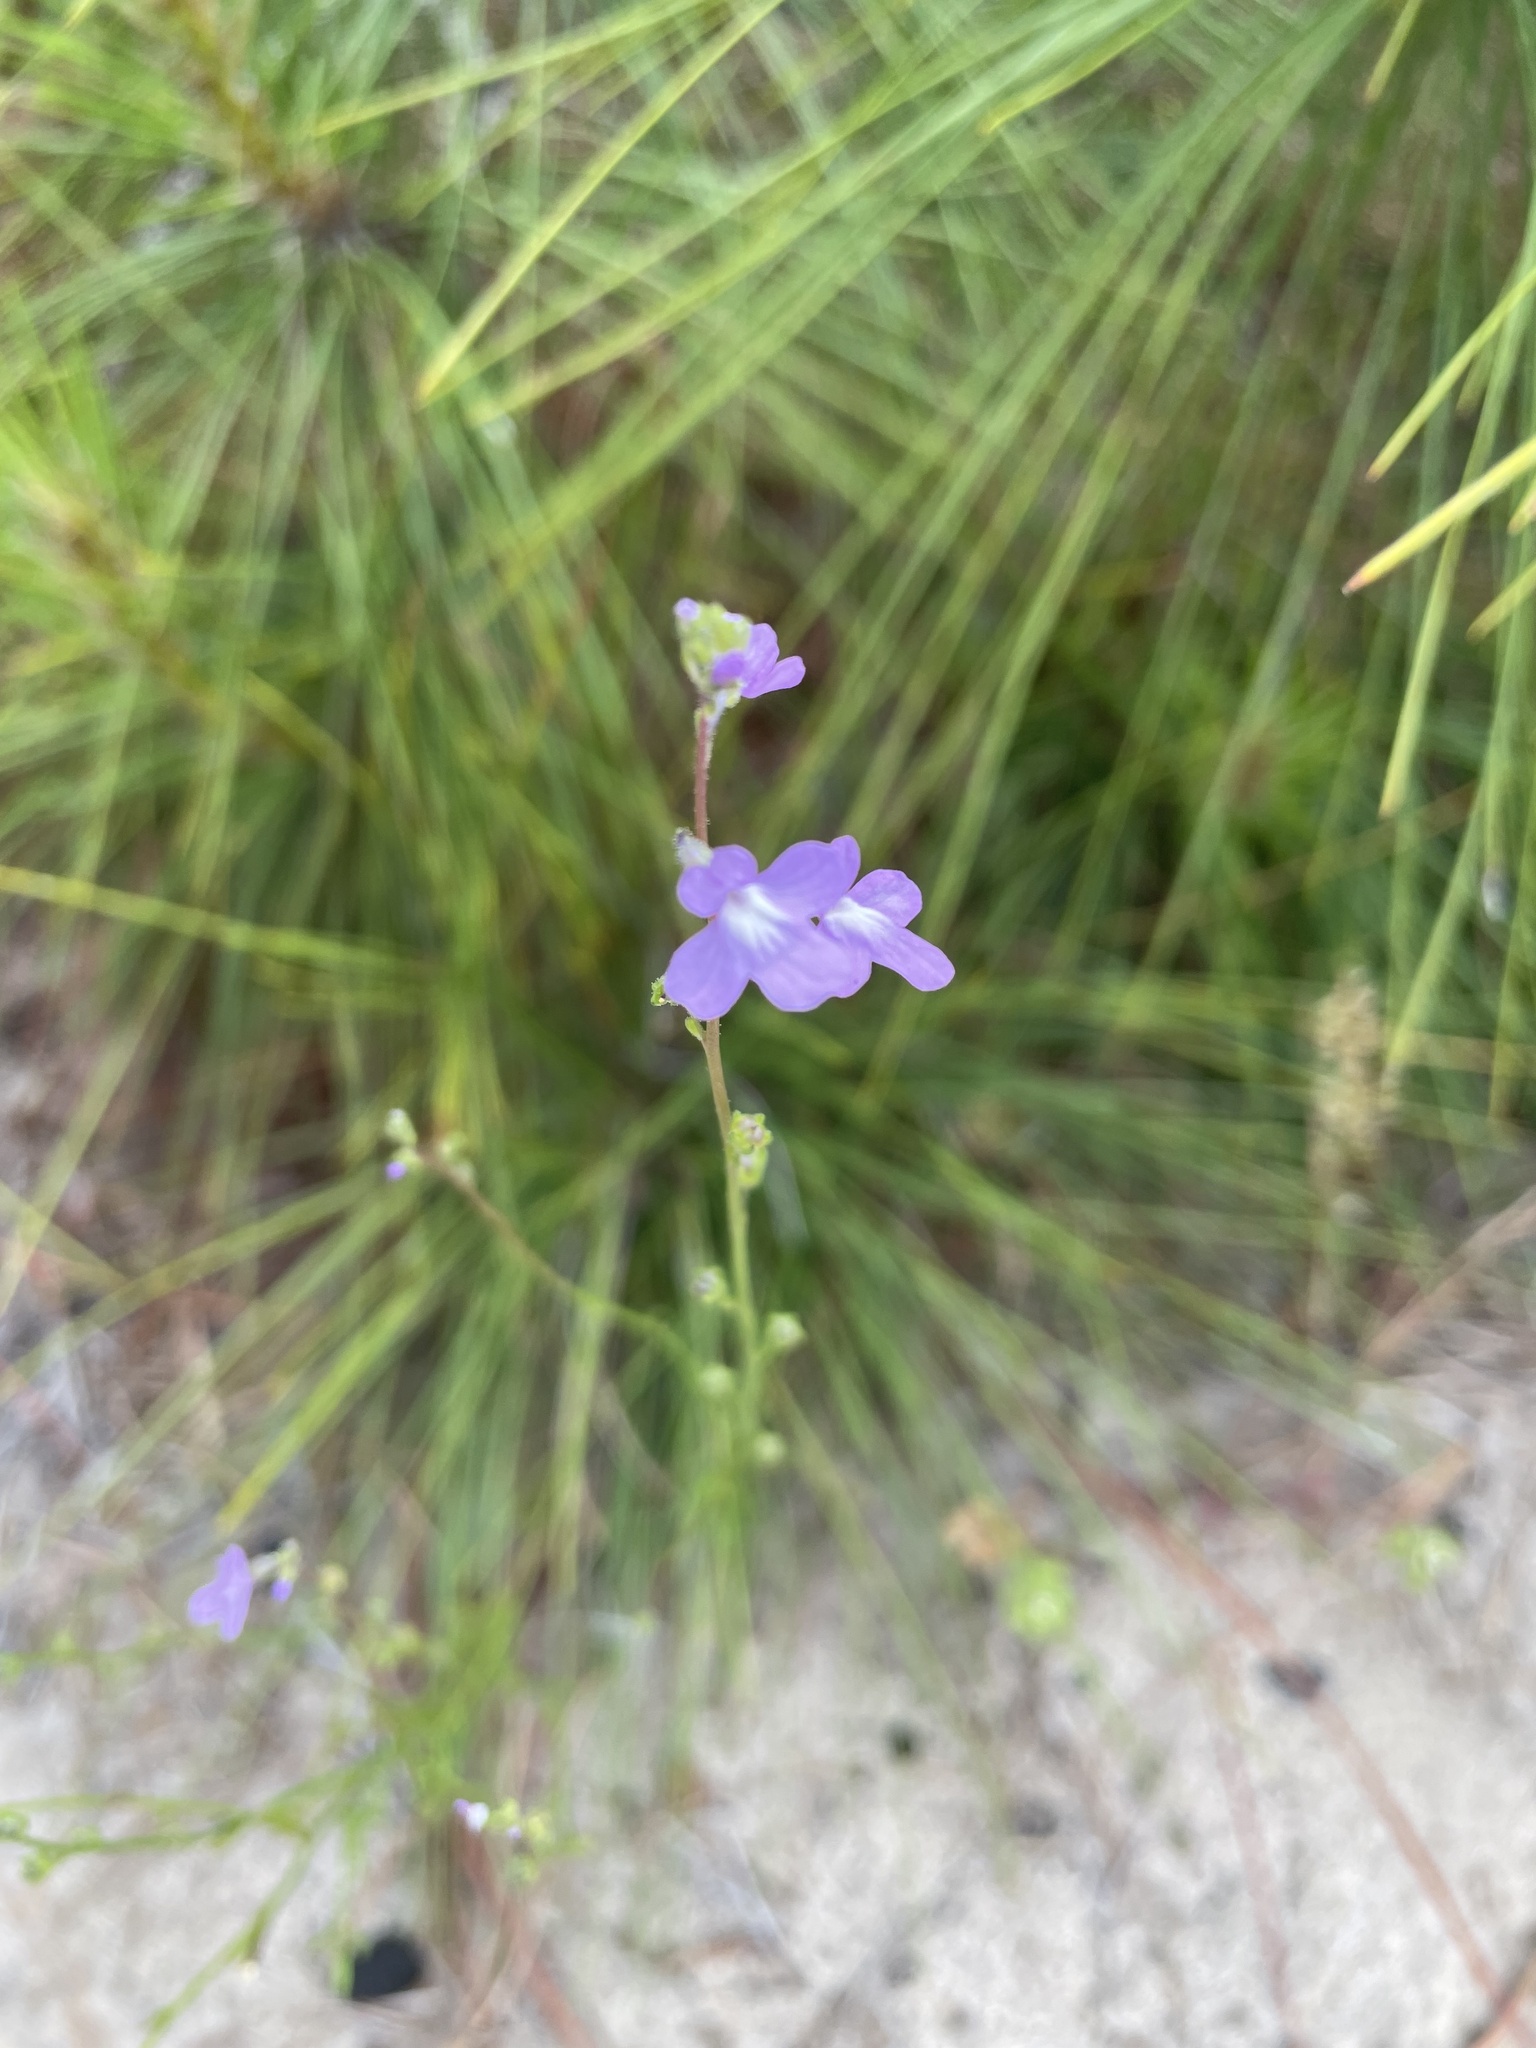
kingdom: Plantae
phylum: Tracheophyta
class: Magnoliopsida
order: Lamiales
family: Plantaginaceae
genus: Nuttallanthus
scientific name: Nuttallanthus canadensis
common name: Blue toadflax
